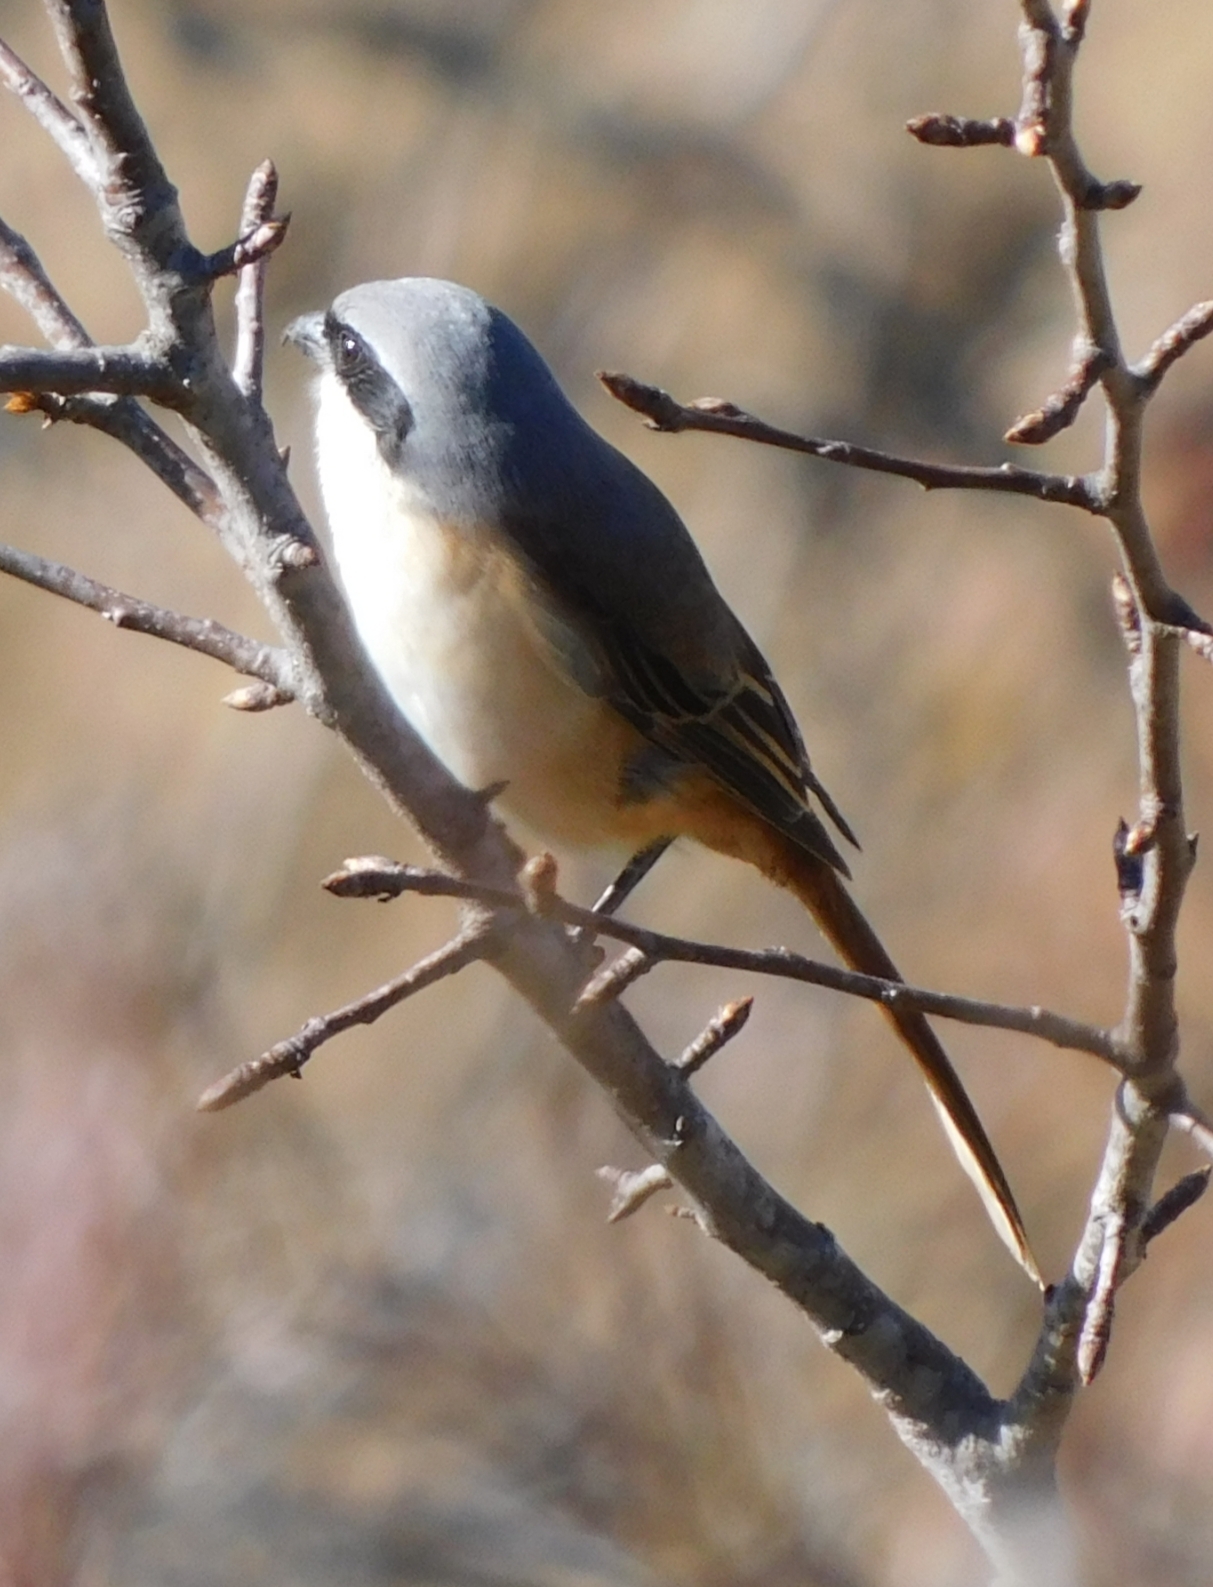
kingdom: Animalia
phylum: Chordata
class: Aves
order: Passeriformes
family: Laniidae
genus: Lanius
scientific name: Lanius schach
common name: Long-tailed shrike
